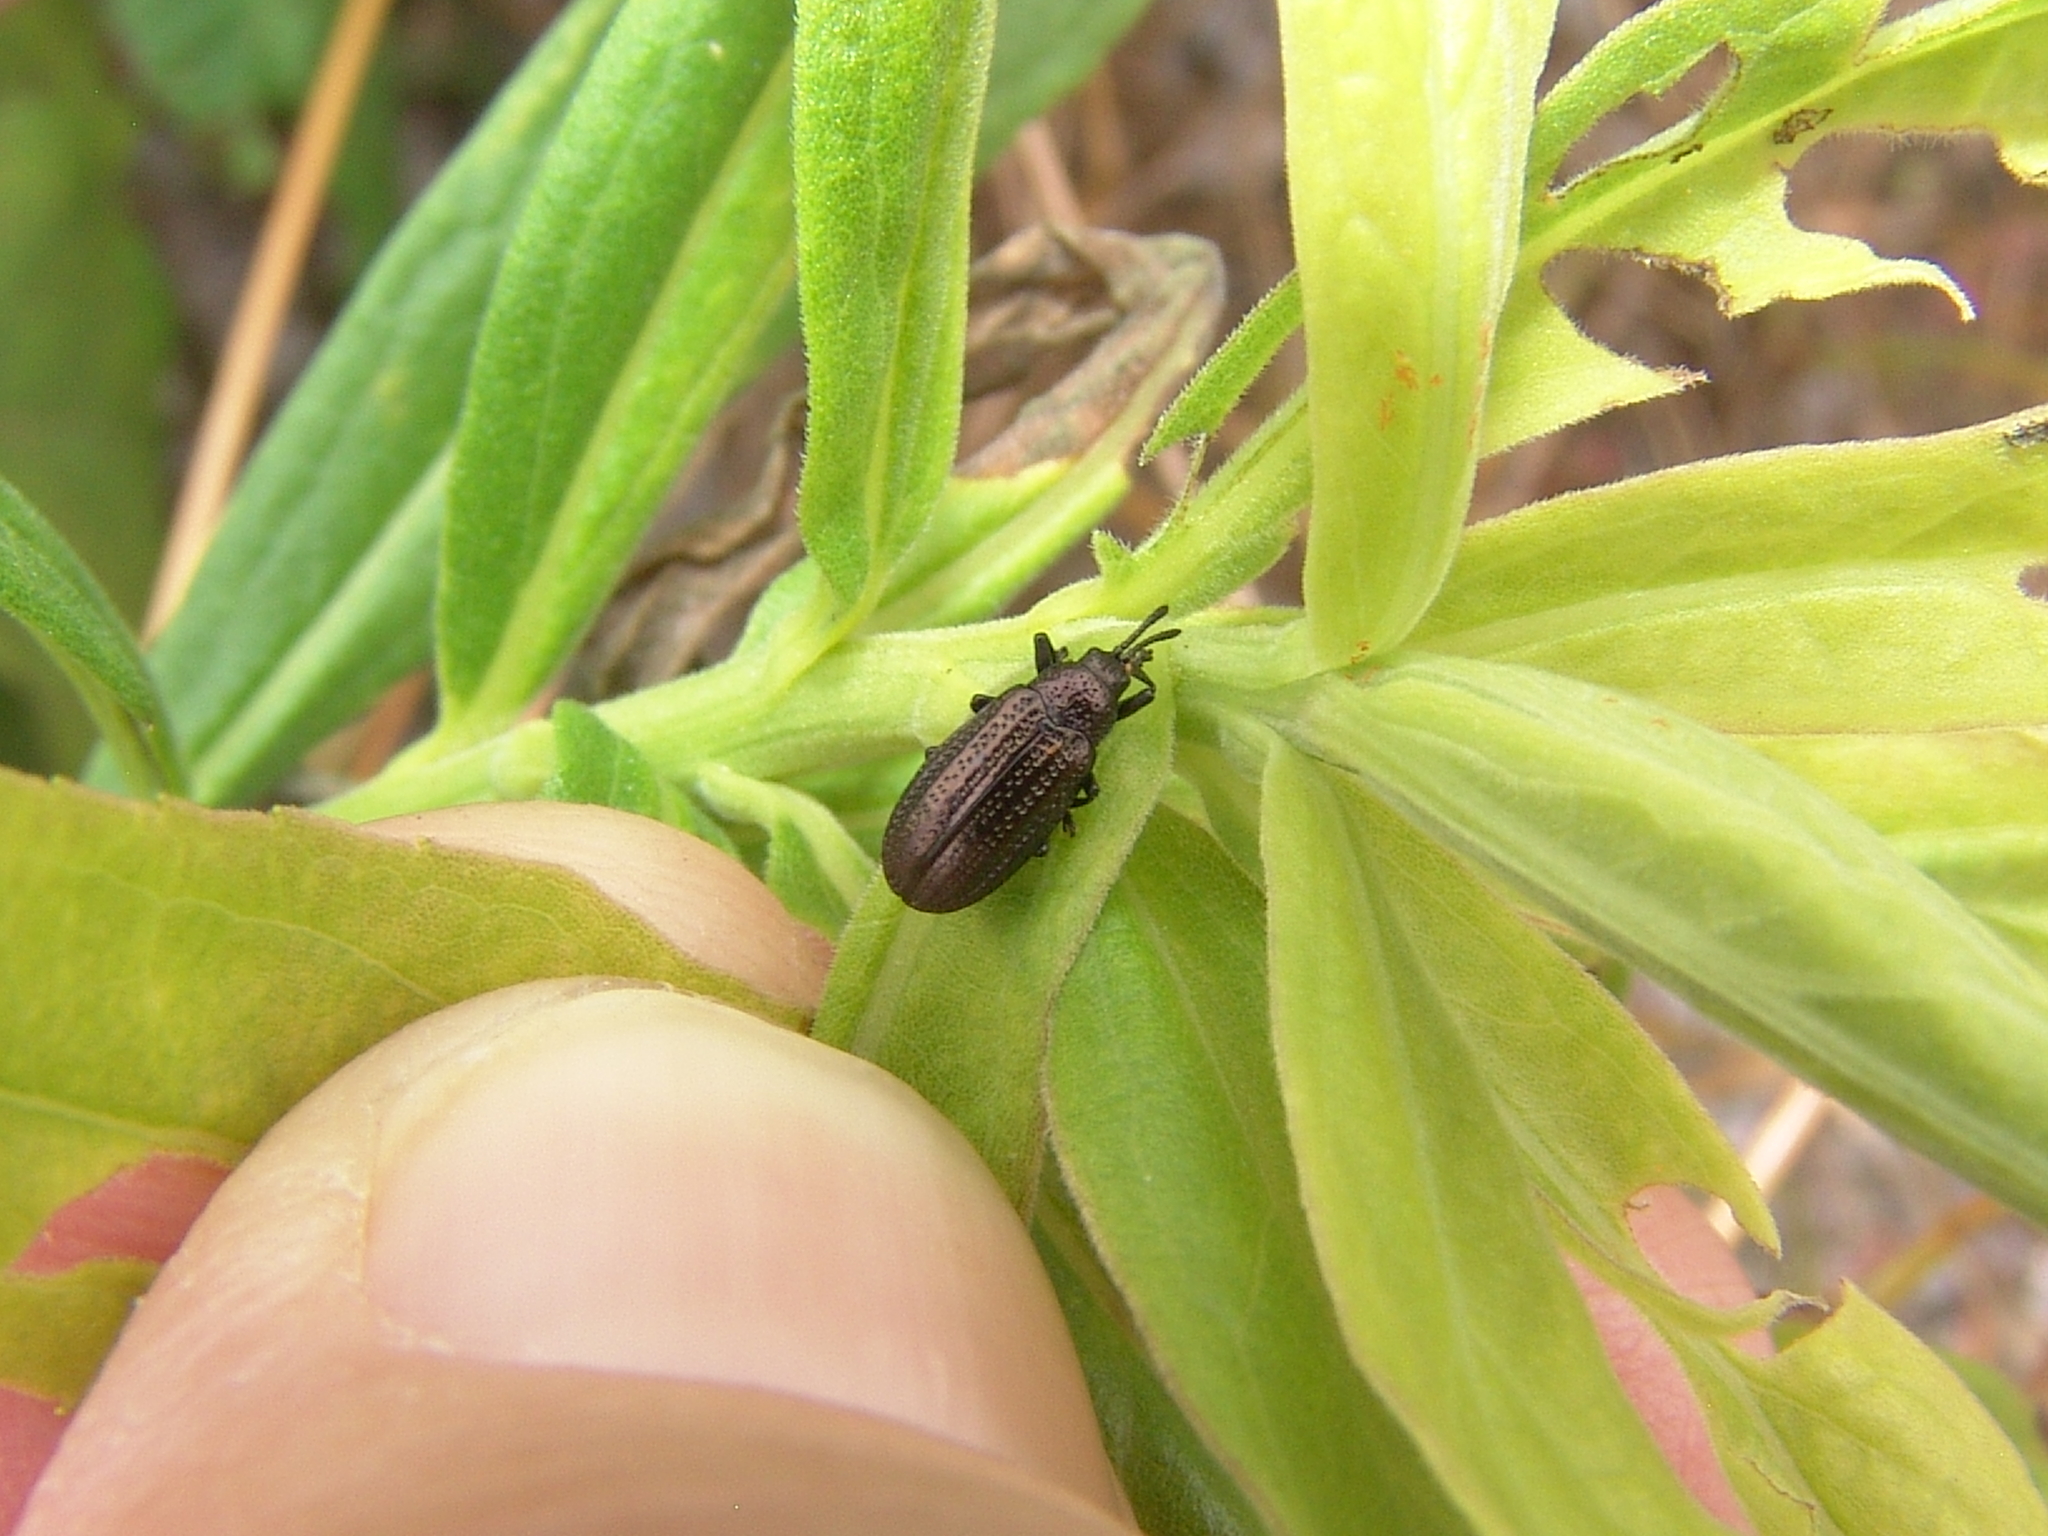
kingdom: Animalia
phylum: Arthropoda
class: Insecta
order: Coleoptera
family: Chrysomelidae
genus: Microrhopala
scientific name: Microrhopala excavata
